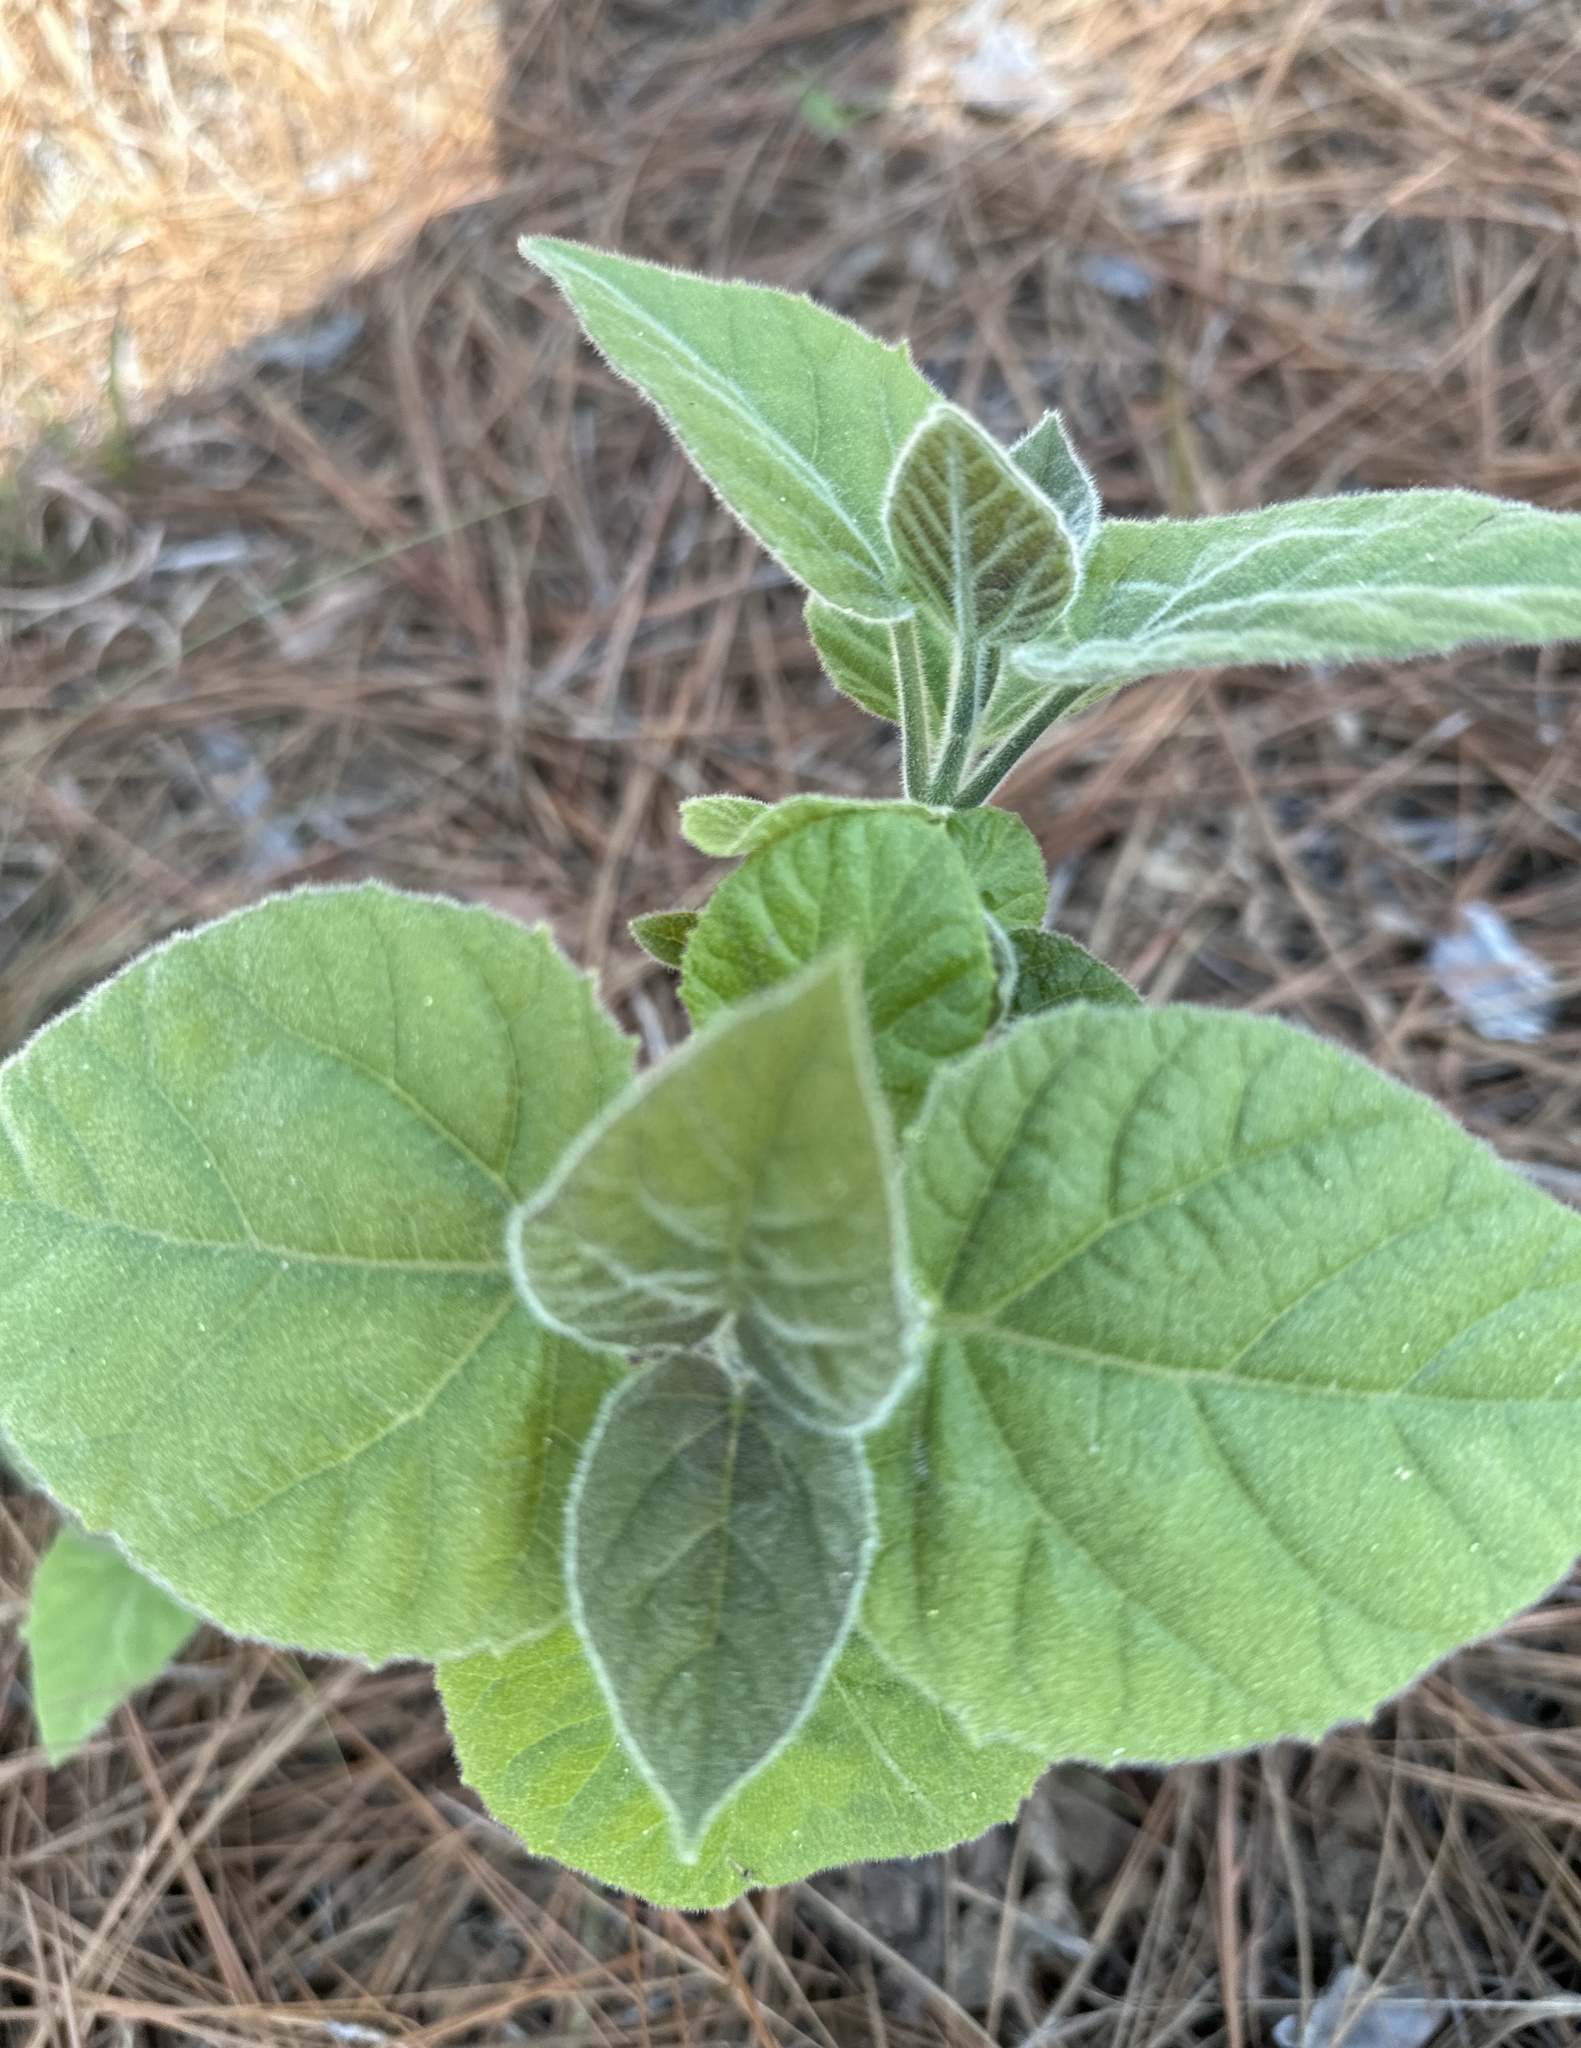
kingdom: Plantae
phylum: Tracheophyta
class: Magnoliopsida
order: Lamiales
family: Paulowniaceae
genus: Paulownia
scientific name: Paulownia tomentosa
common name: Foxglove-tree
